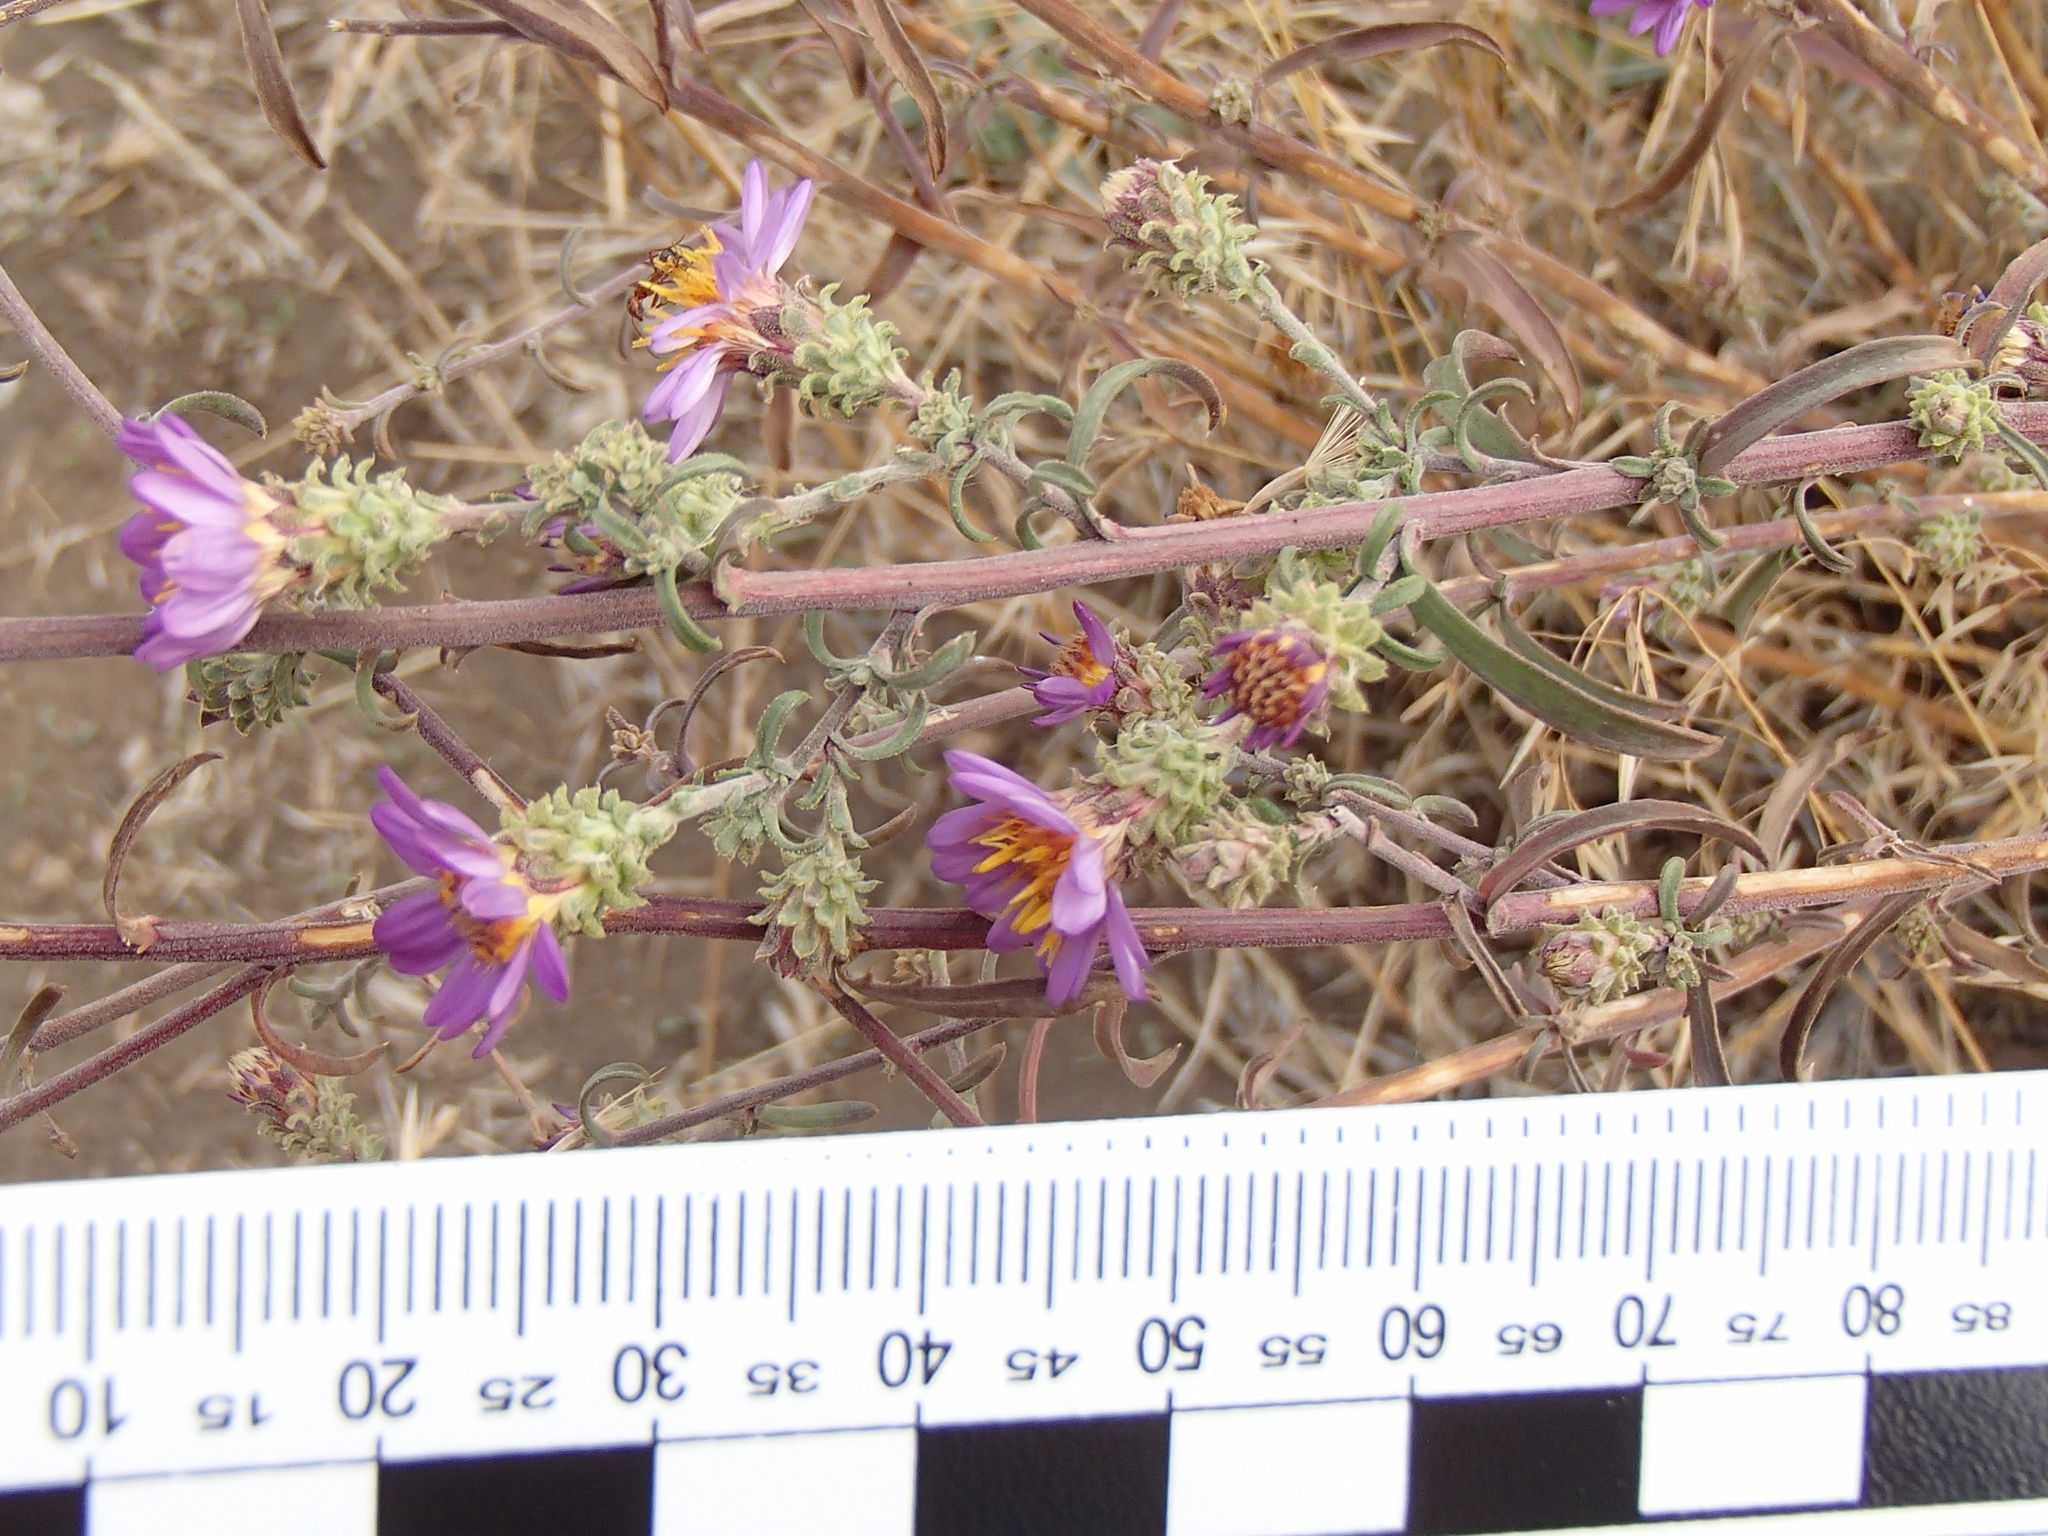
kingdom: Plantae
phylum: Tracheophyta
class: Magnoliopsida
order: Asterales
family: Asteraceae
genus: Dieteria
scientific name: Dieteria canescens
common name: Hoary-aster
